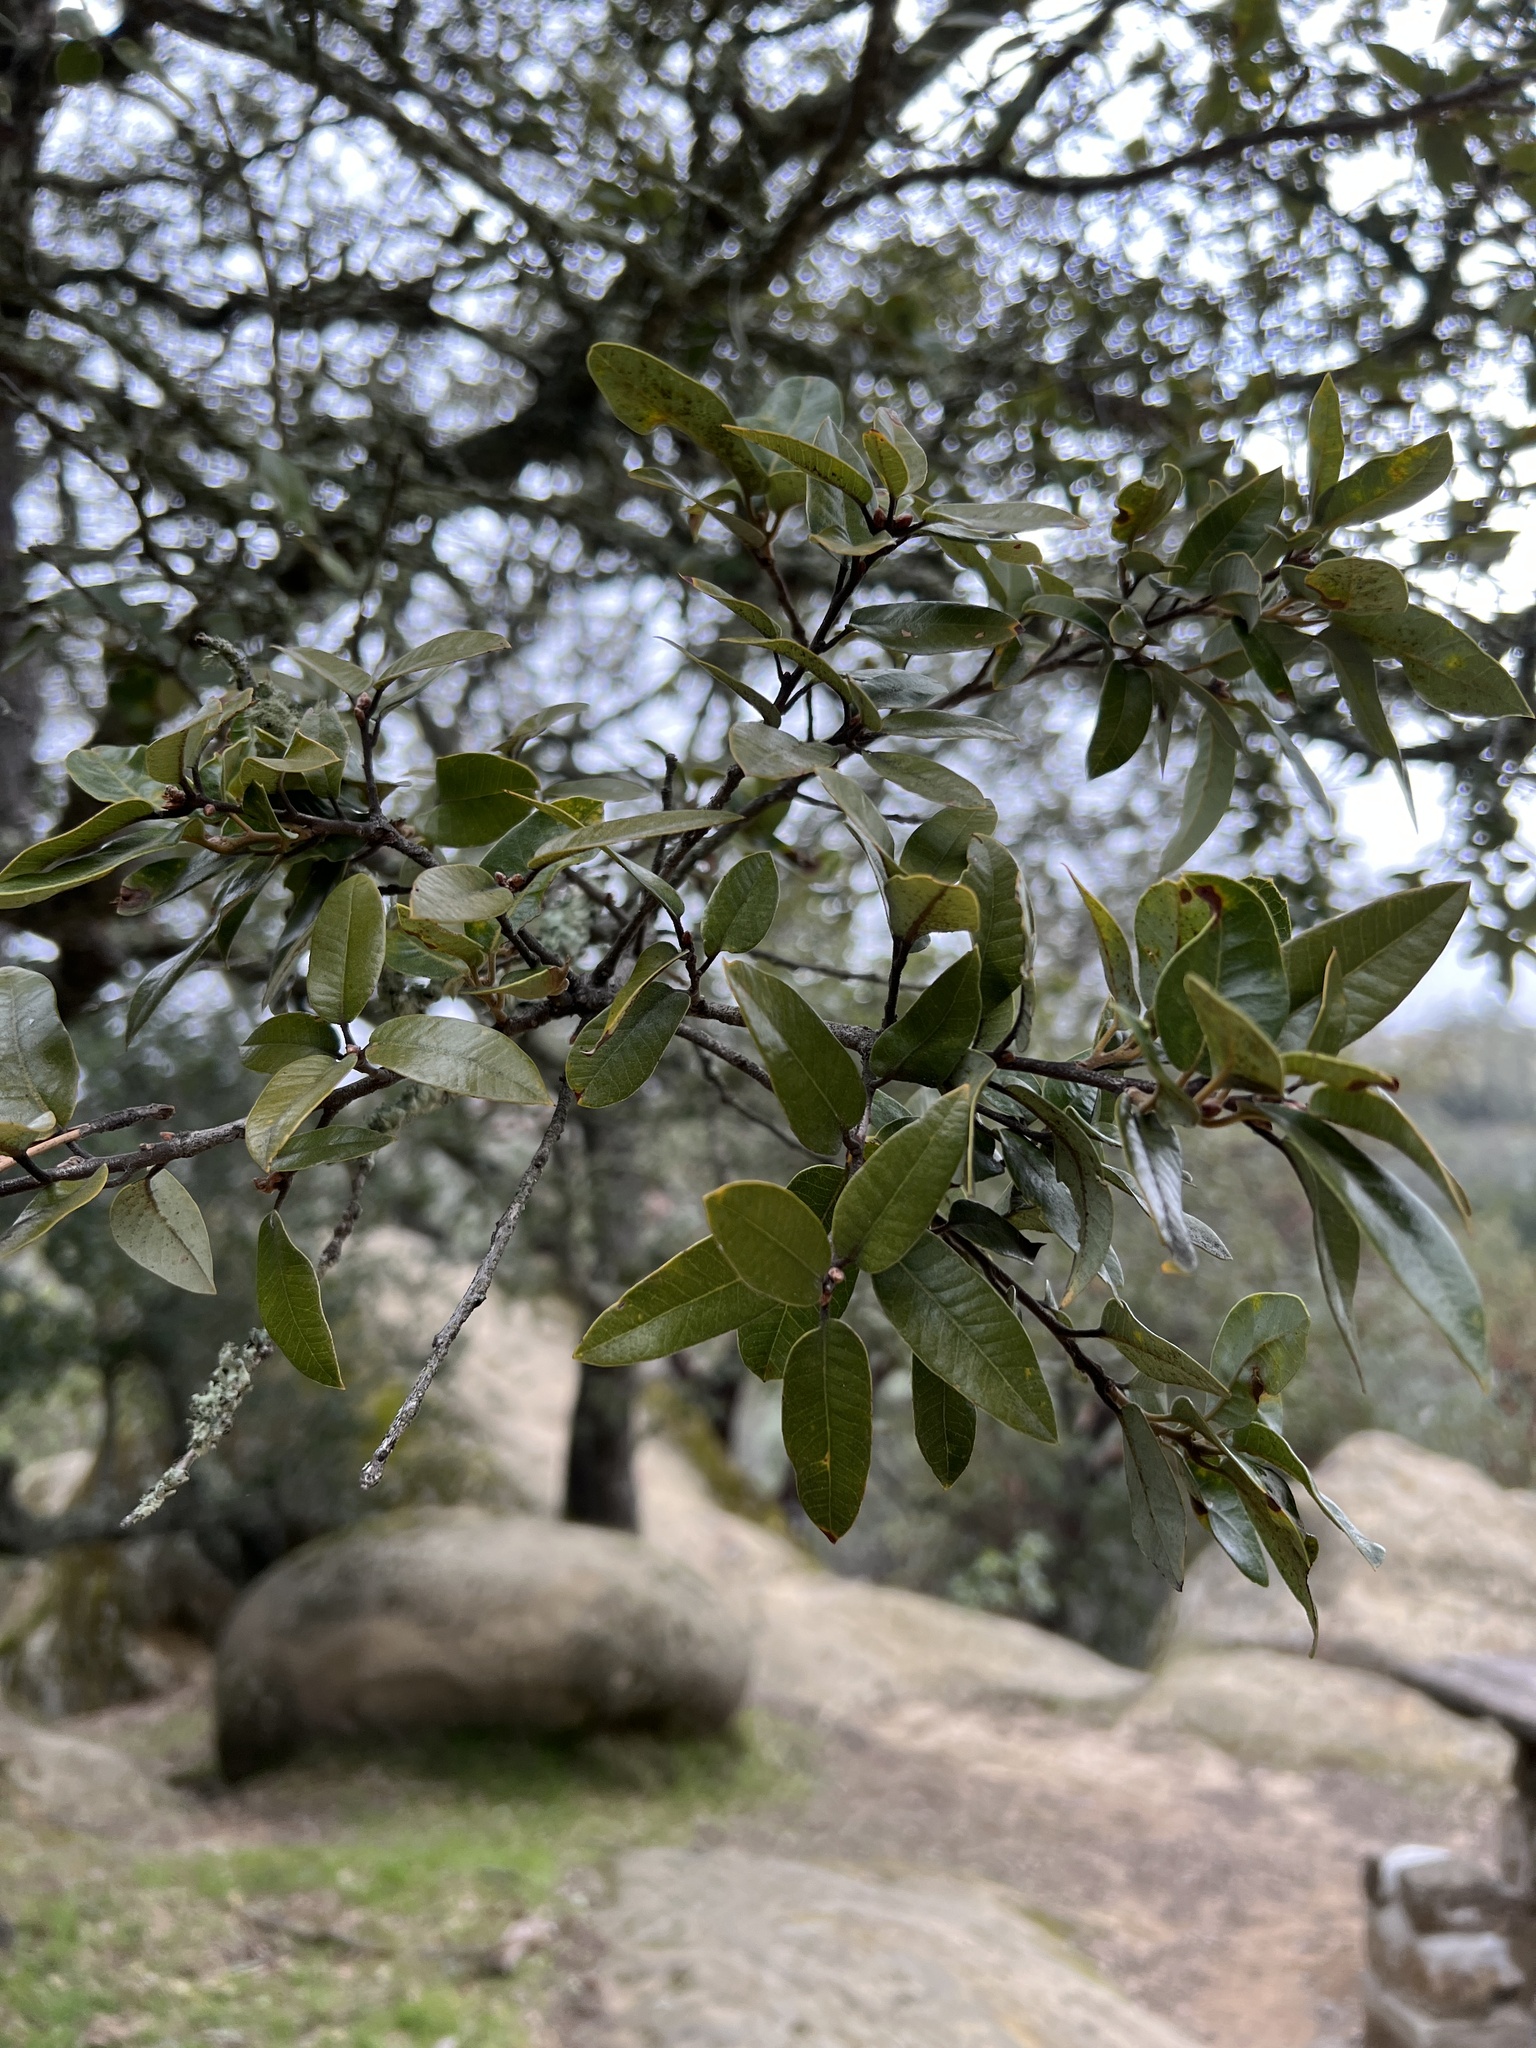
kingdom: Plantae
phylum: Tracheophyta
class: Magnoliopsida
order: Fagales
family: Fagaceae
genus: Quercus
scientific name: Quercus chrysolepis
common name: Canyon live oak
